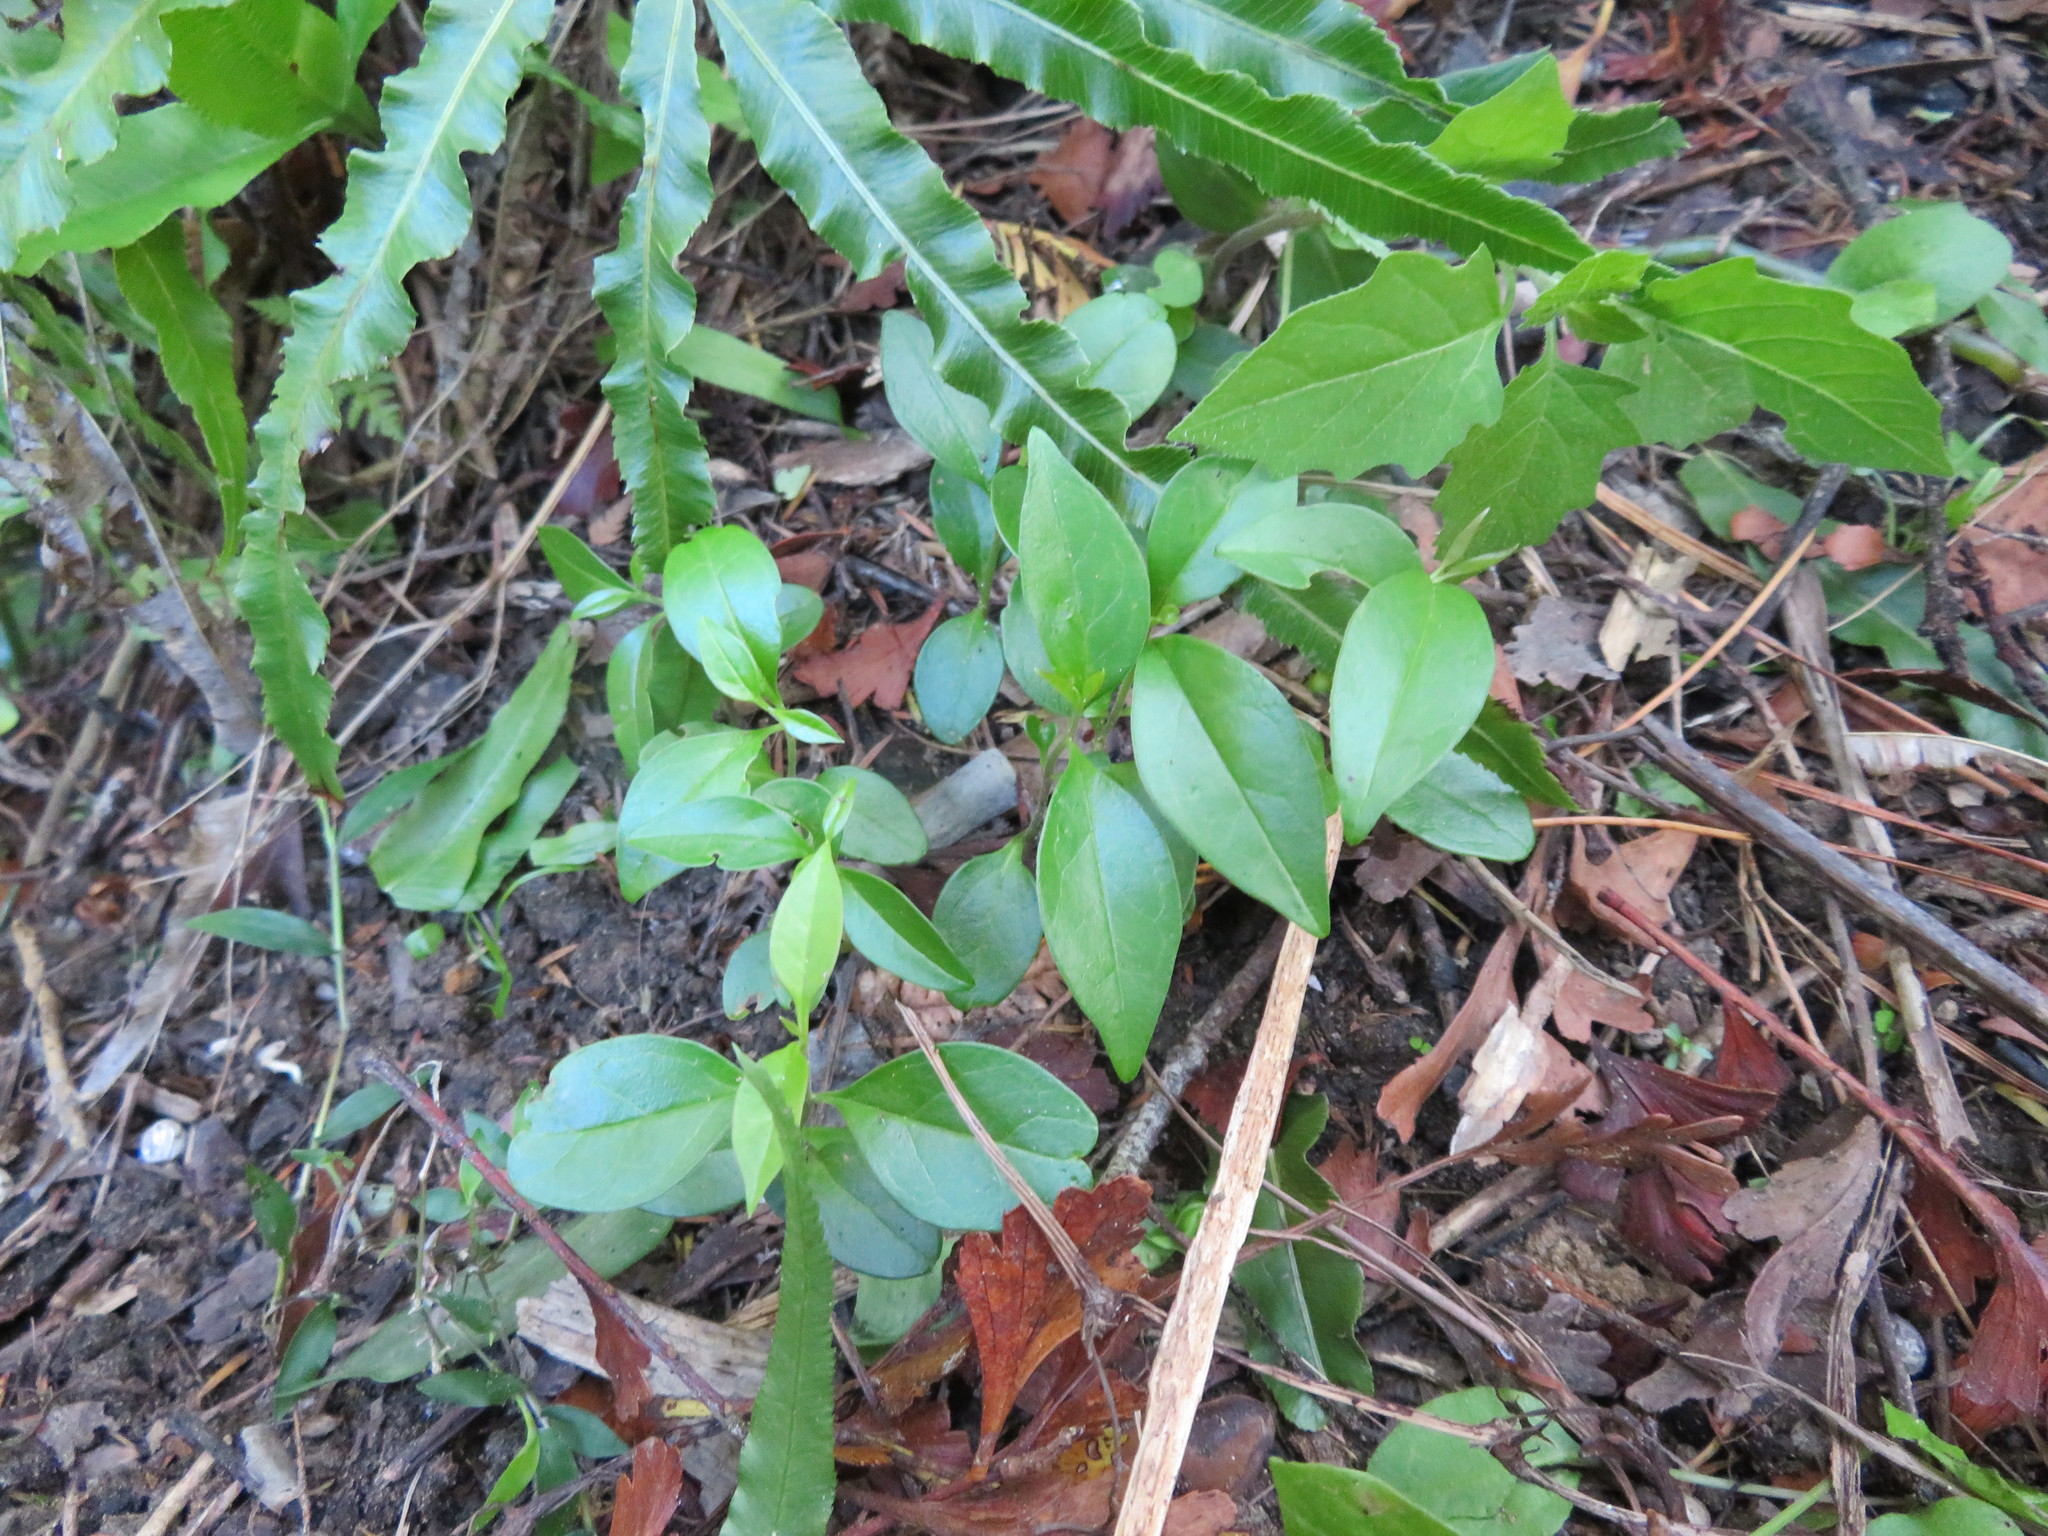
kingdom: Plantae
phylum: Tracheophyta
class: Magnoliopsida
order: Lamiales
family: Oleaceae
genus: Ligustrum
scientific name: Ligustrum lucidum
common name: Glossy privet
